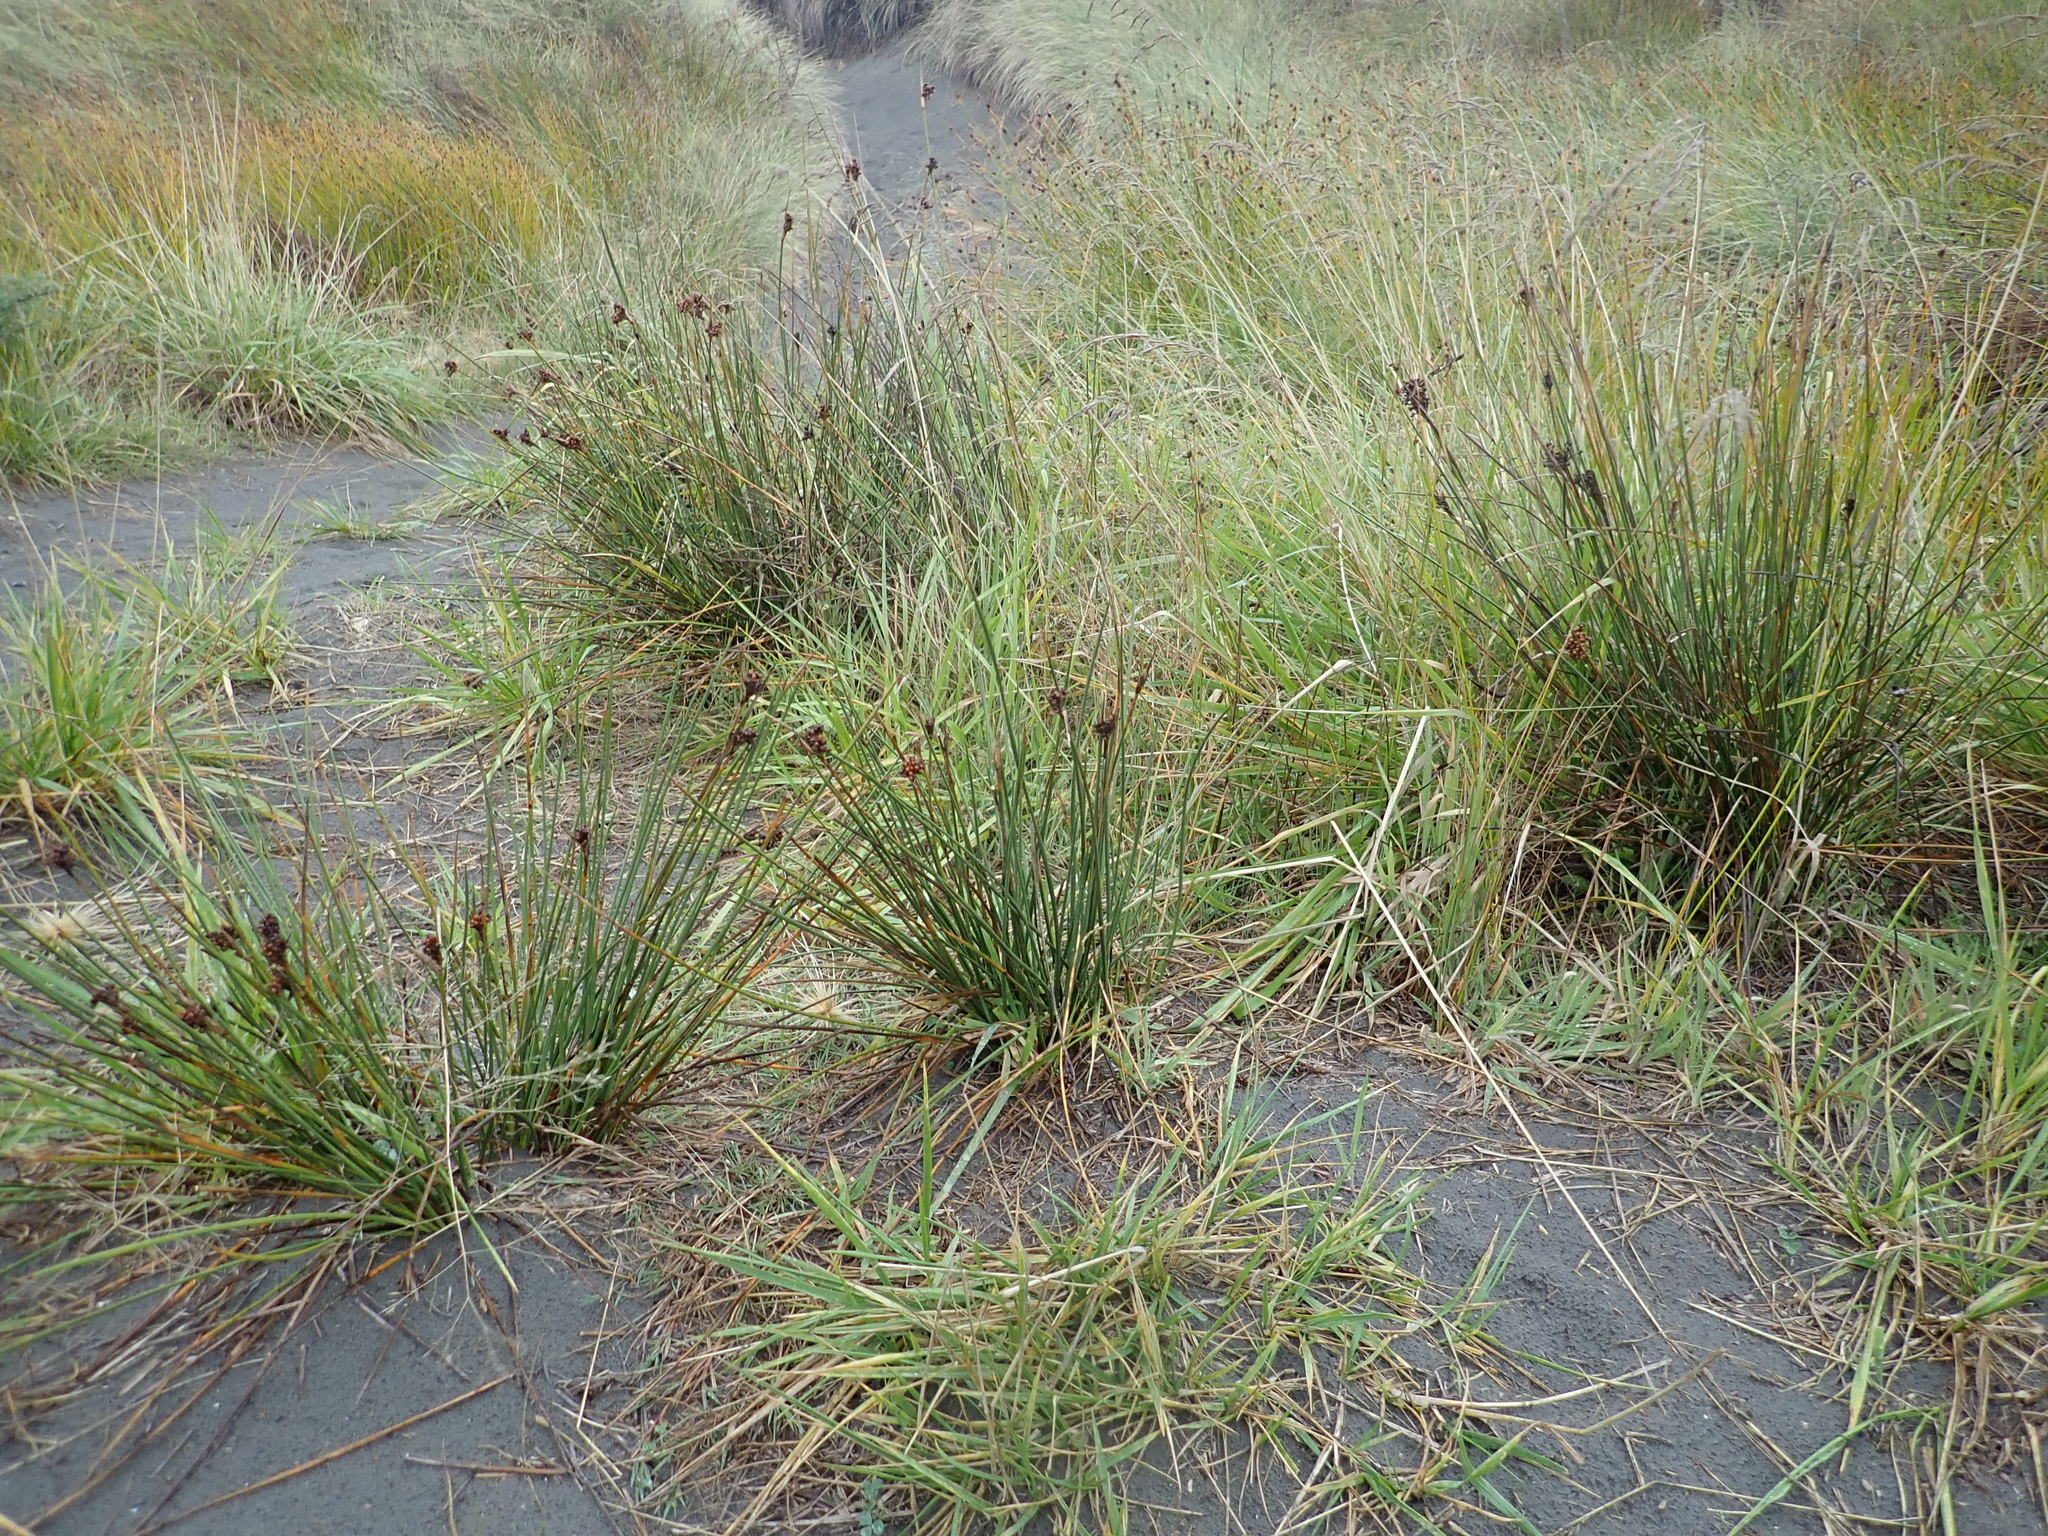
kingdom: Plantae
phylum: Tracheophyta
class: Liliopsida
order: Poales
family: Juncaceae
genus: Juncus
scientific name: Juncus acutus
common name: Sharp rush
